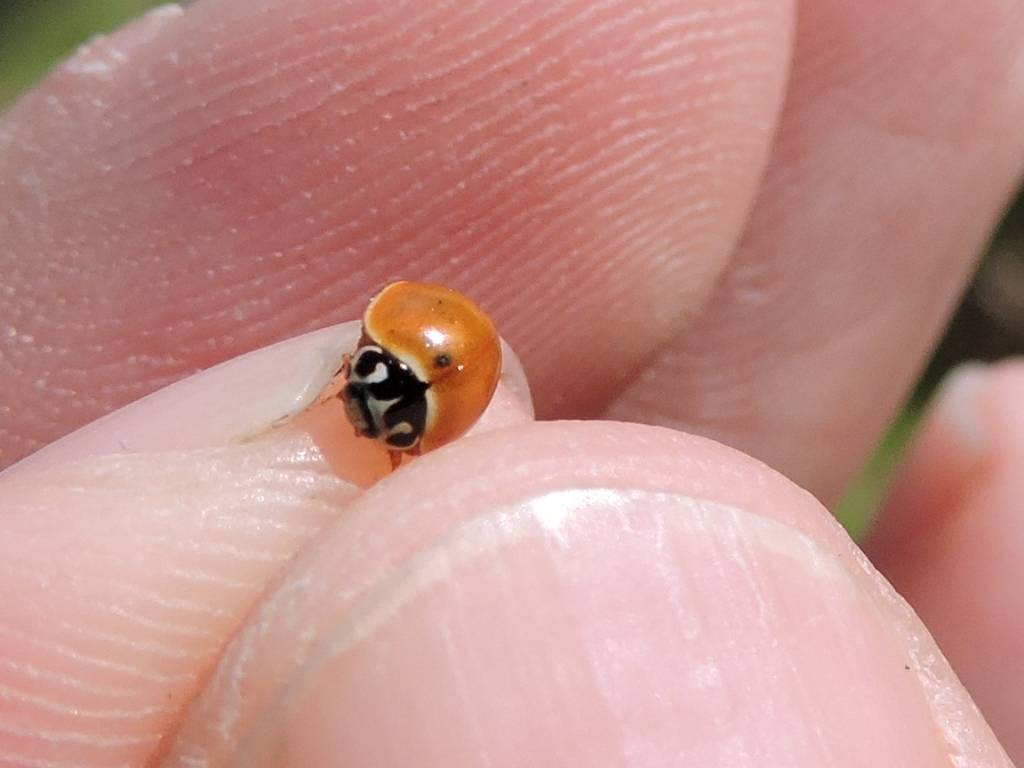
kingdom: Animalia
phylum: Arthropoda
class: Insecta
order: Coleoptera
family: Coccinellidae
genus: Cycloneda
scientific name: Cycloneda munda
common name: Polished lady beetle
